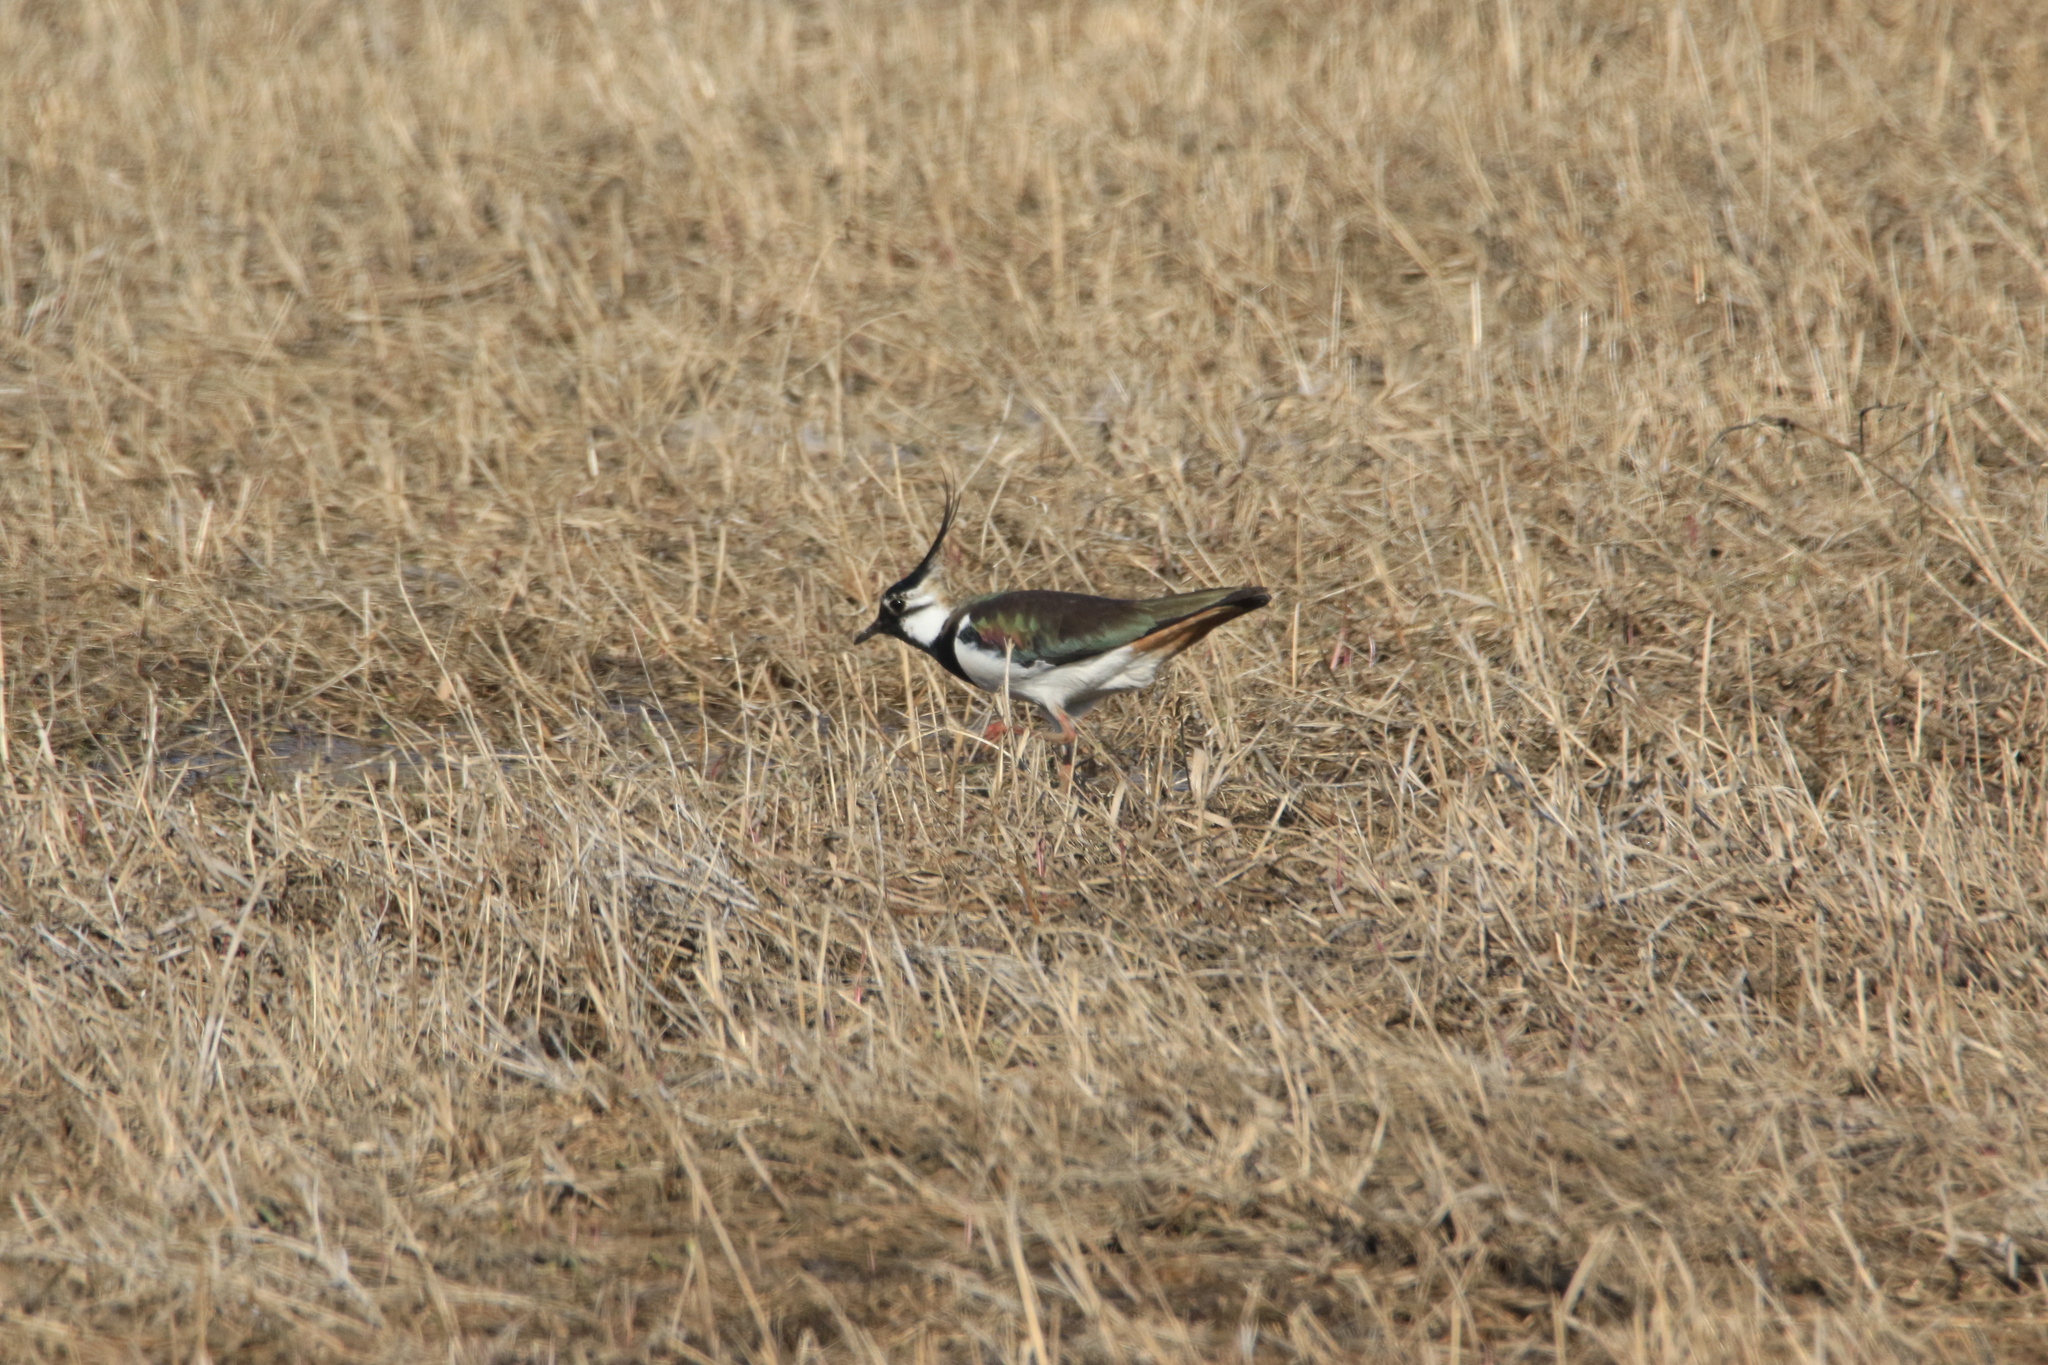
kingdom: Animalia
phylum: Chordata
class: Aves
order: Charadriiformes
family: Charadriidae
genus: Vanellus
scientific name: Vanellus vanellus
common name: Northern lapwing
